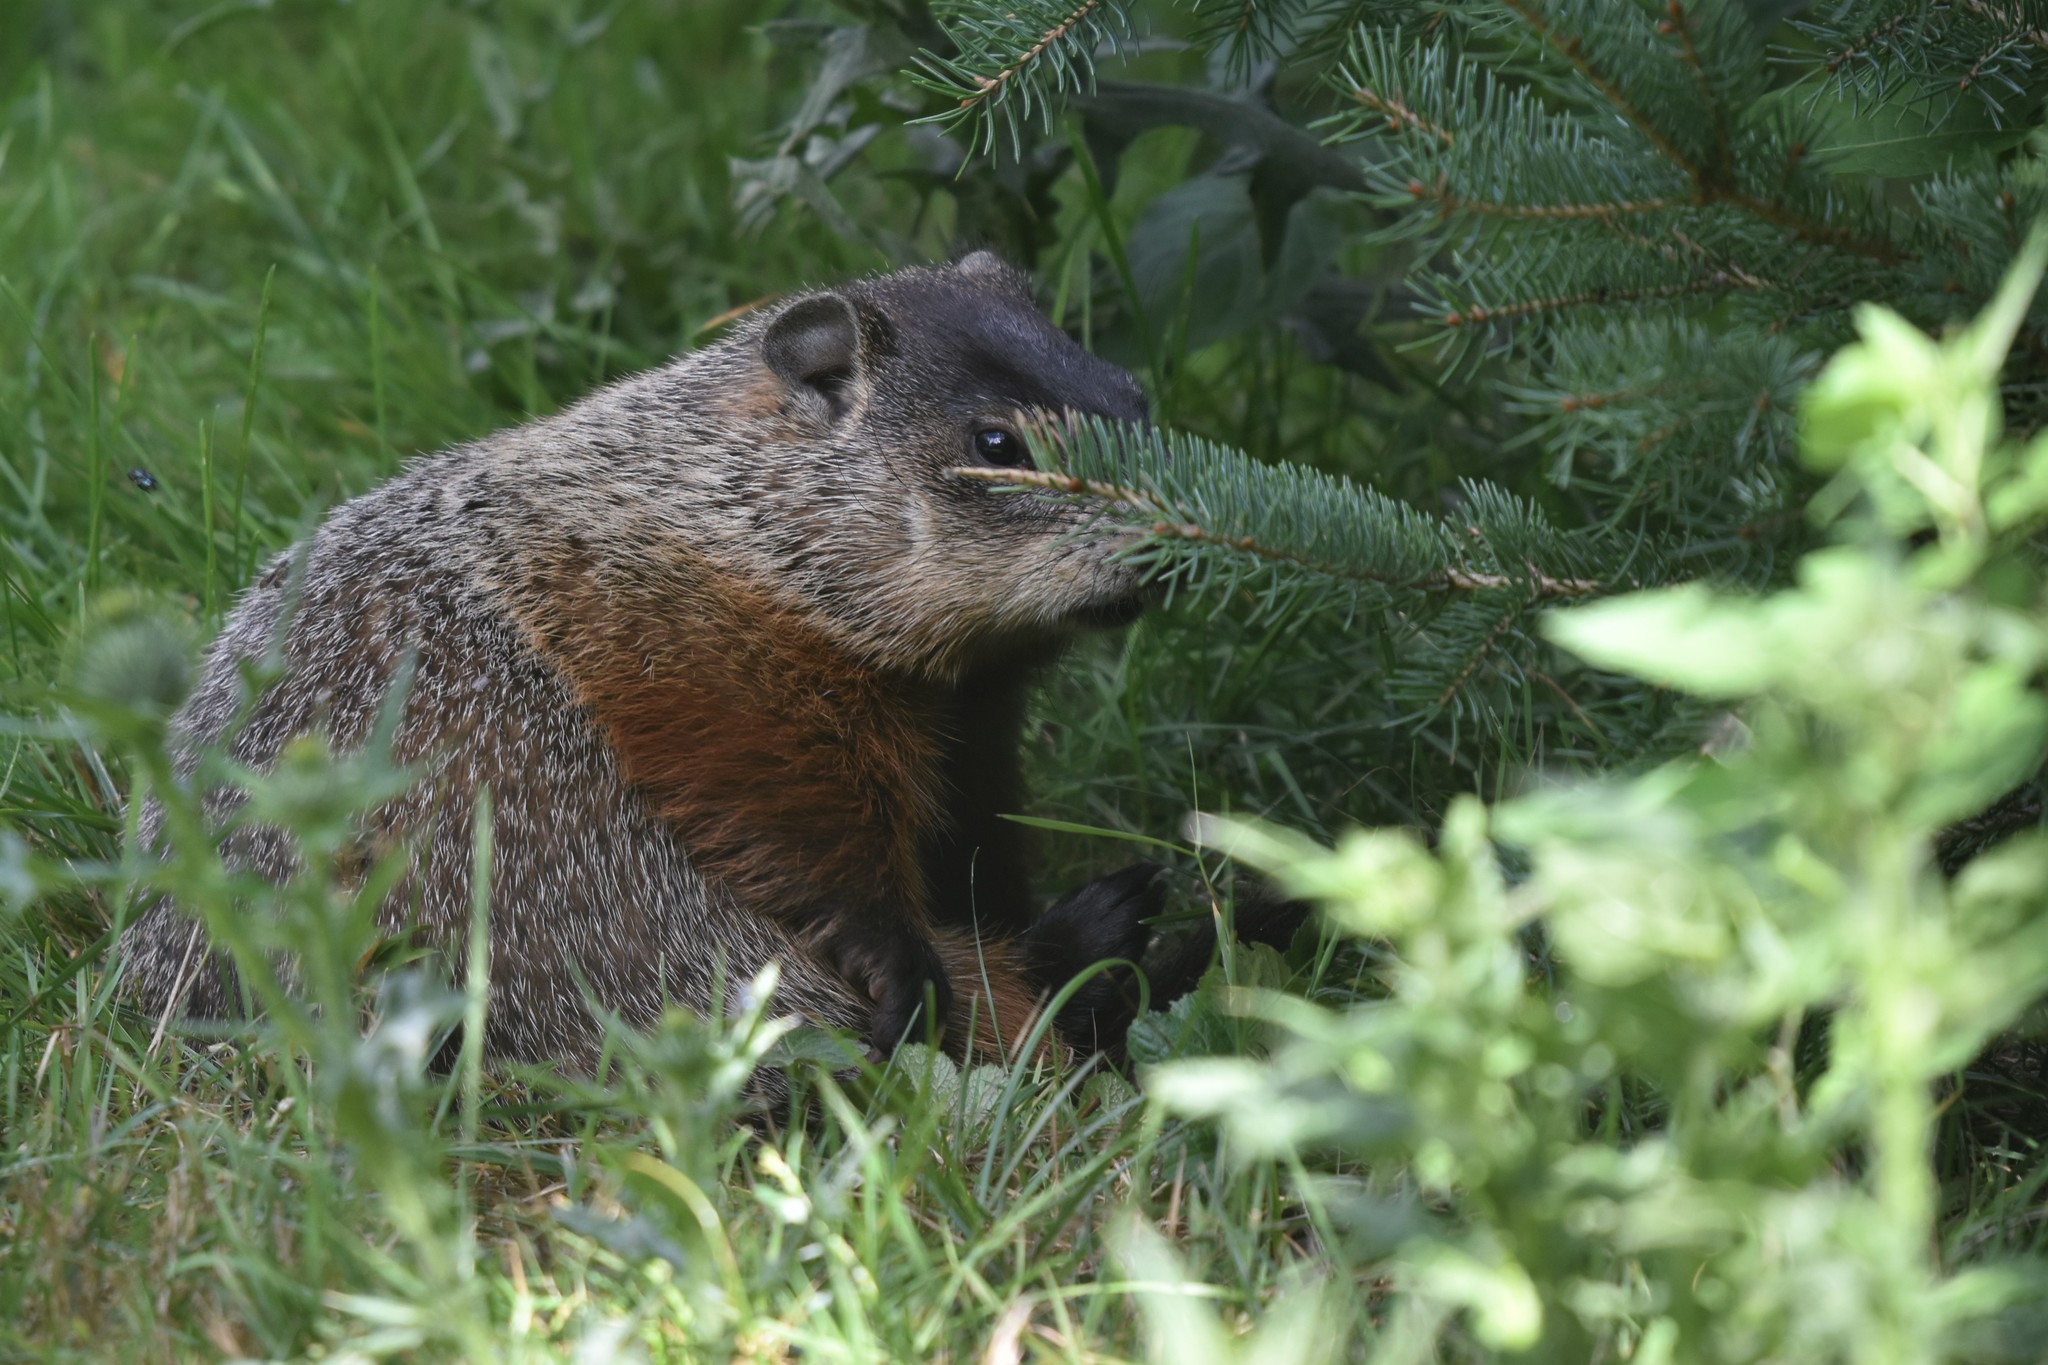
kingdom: Animalia
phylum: Chordata
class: Mammalia
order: Rodentia
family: Sciuridae
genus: Marmota
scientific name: Marmota monax
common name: Groundhog
